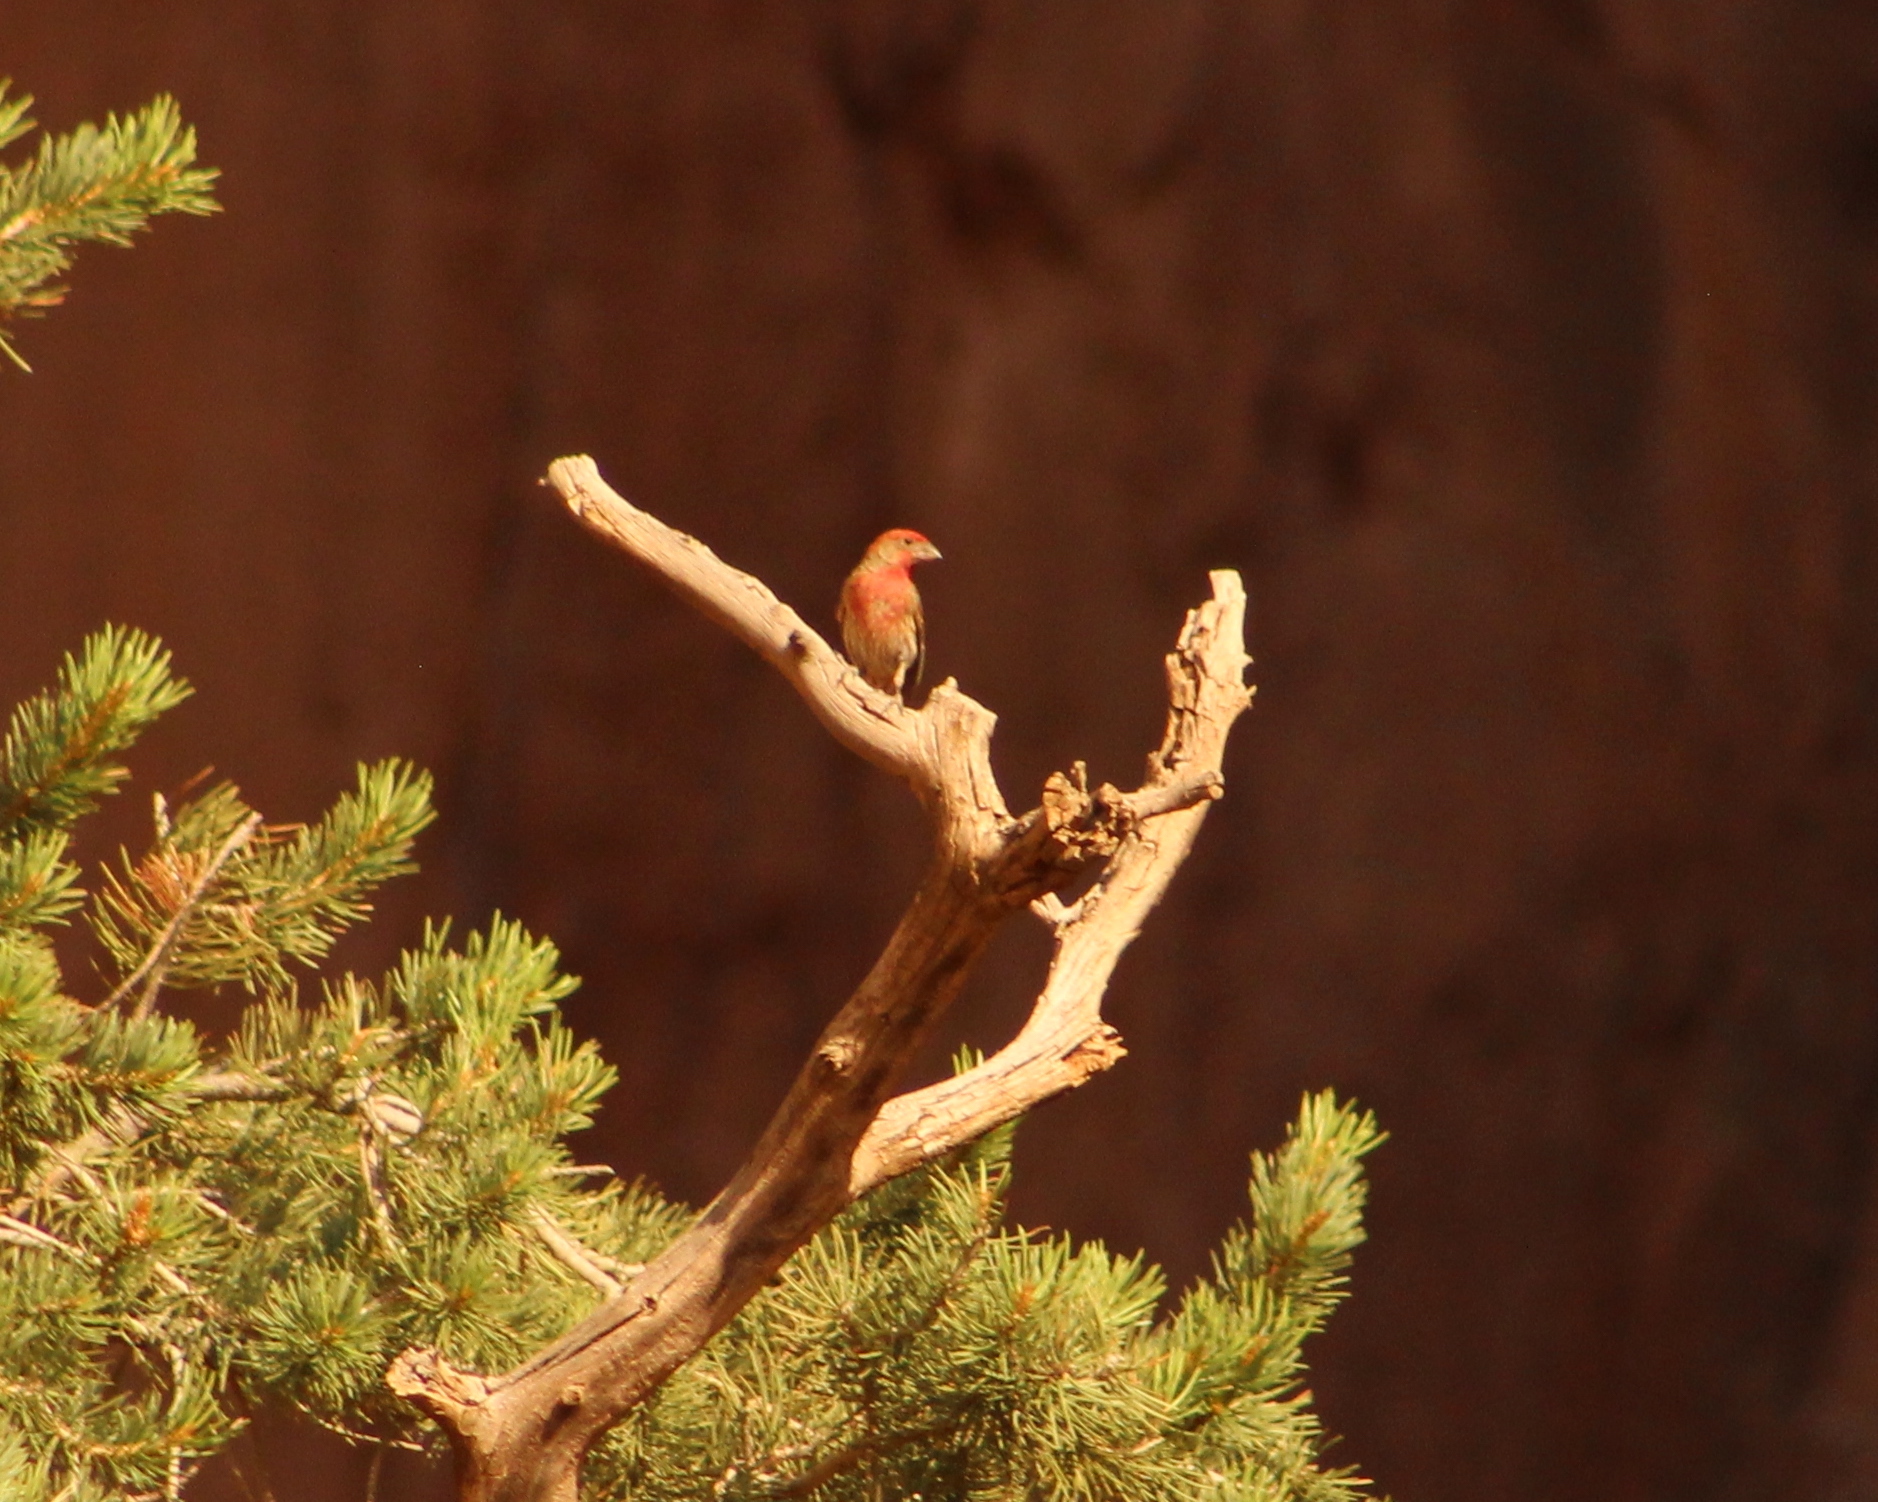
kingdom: Animalia
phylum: Chordata
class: Aves
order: Passeriformes
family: Fringillidae
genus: Haemorhous
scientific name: Haemorhous mexicanus
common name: House finch
